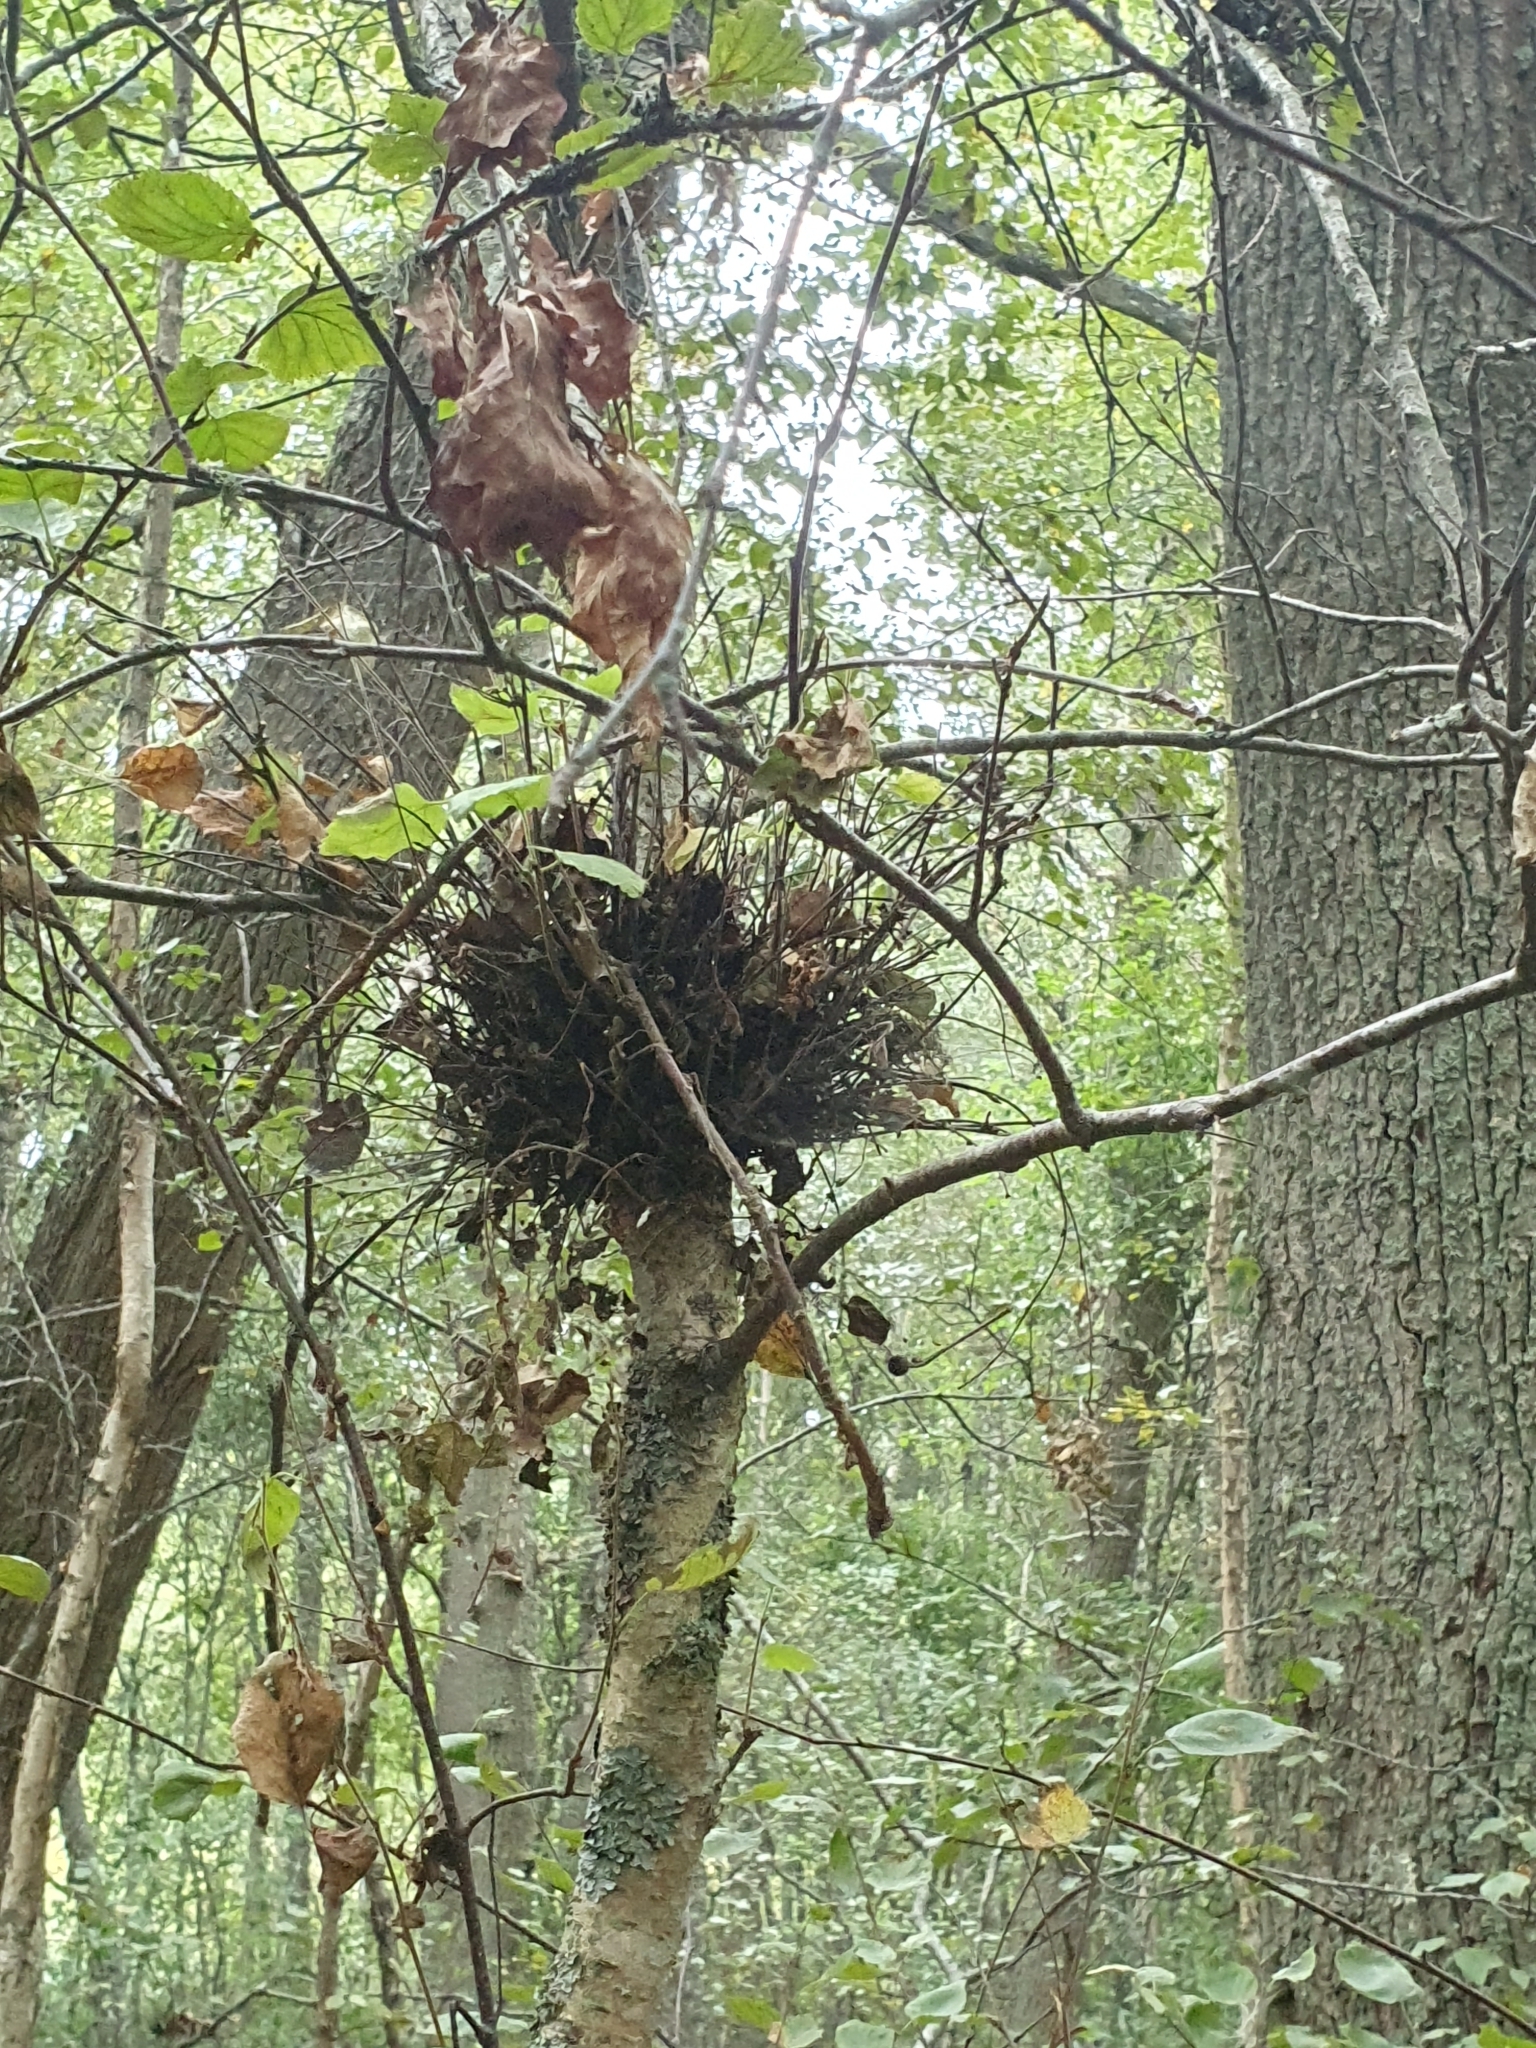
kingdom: Fungi
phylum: Ascomycota
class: Taphrinomycetes
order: Taphrinales
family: Taphrinaceae
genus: Taphrina
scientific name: Taphrina betulina
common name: Birch besom
